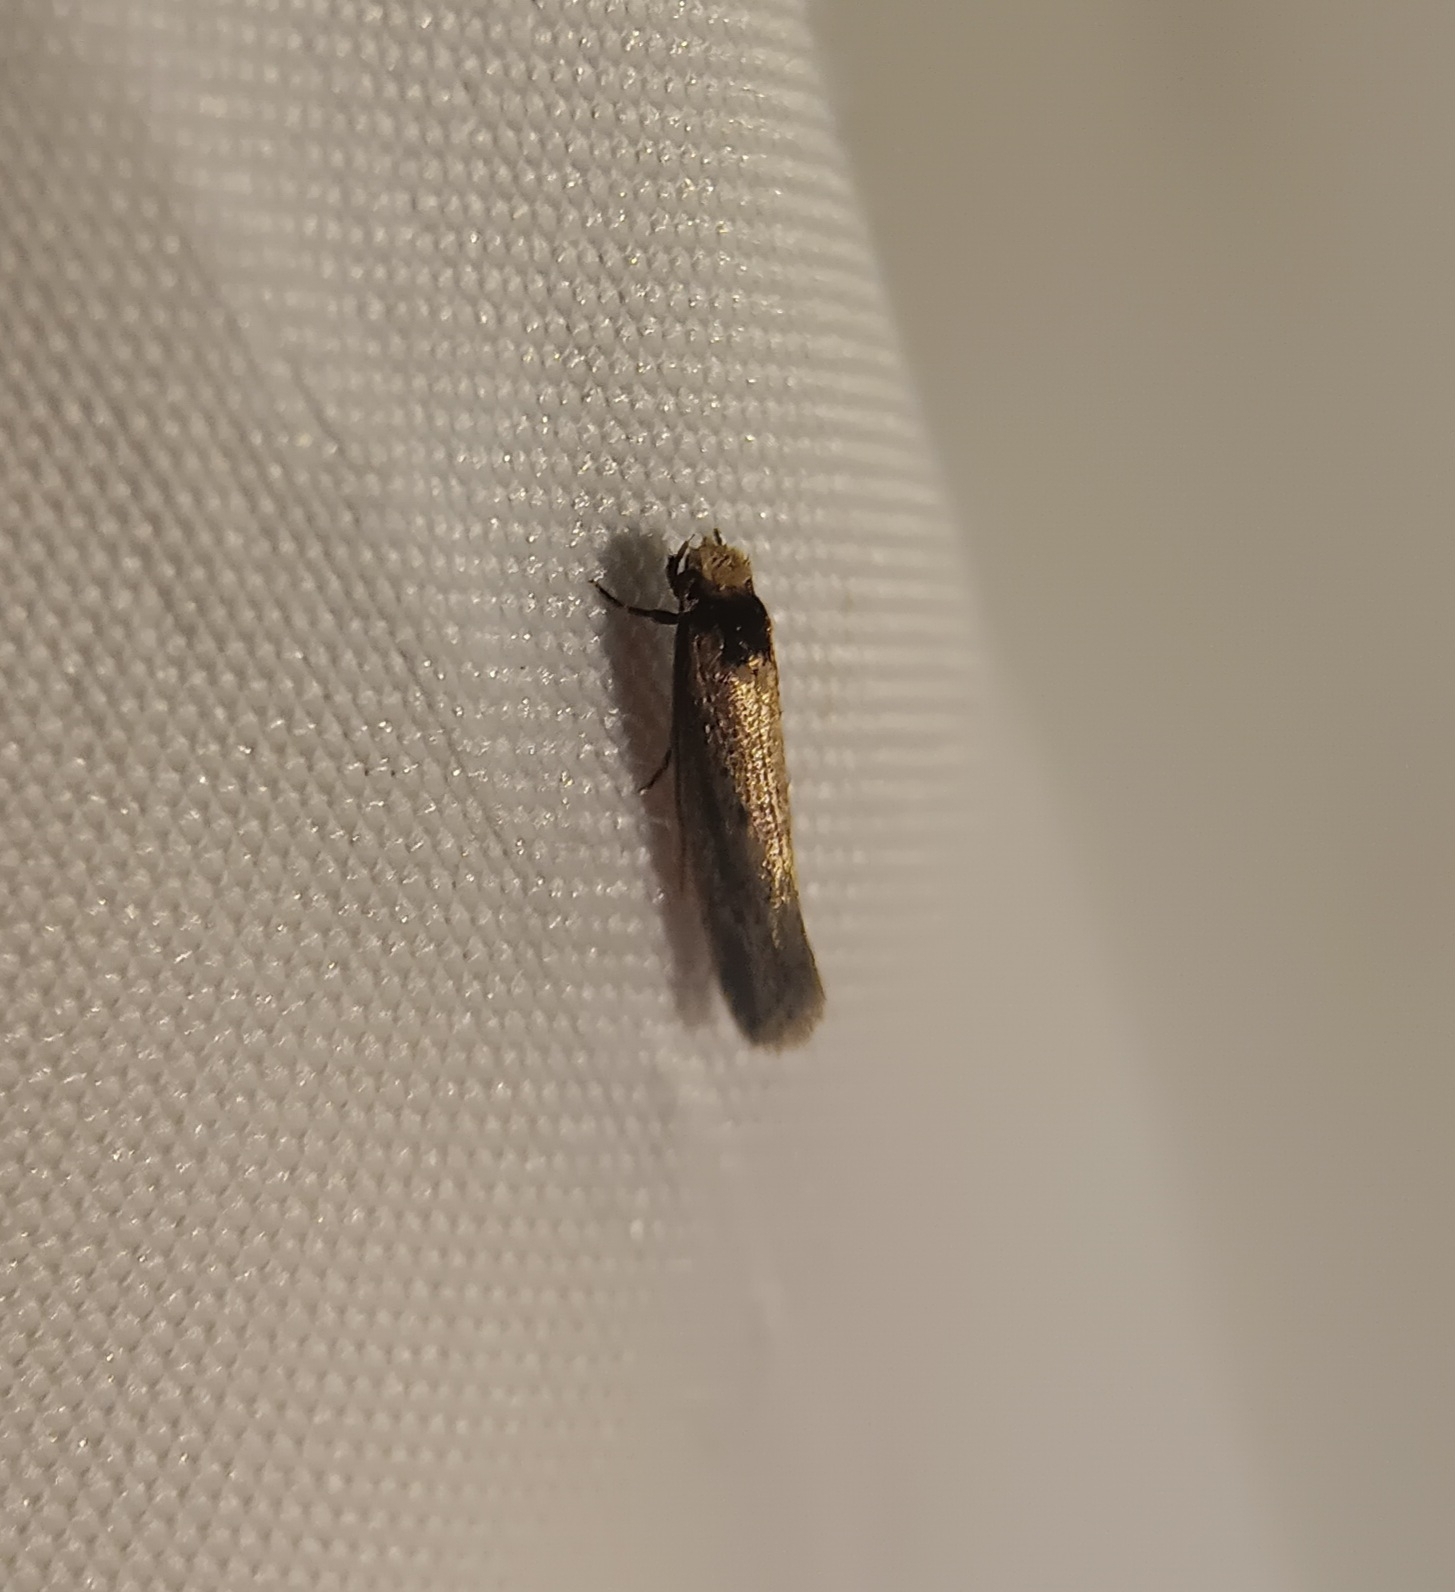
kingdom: Animalia
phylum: Arthropoda
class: Insecta
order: Lepidoptera
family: Tineidae
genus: Tinea
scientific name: Tinea apicimaculella
